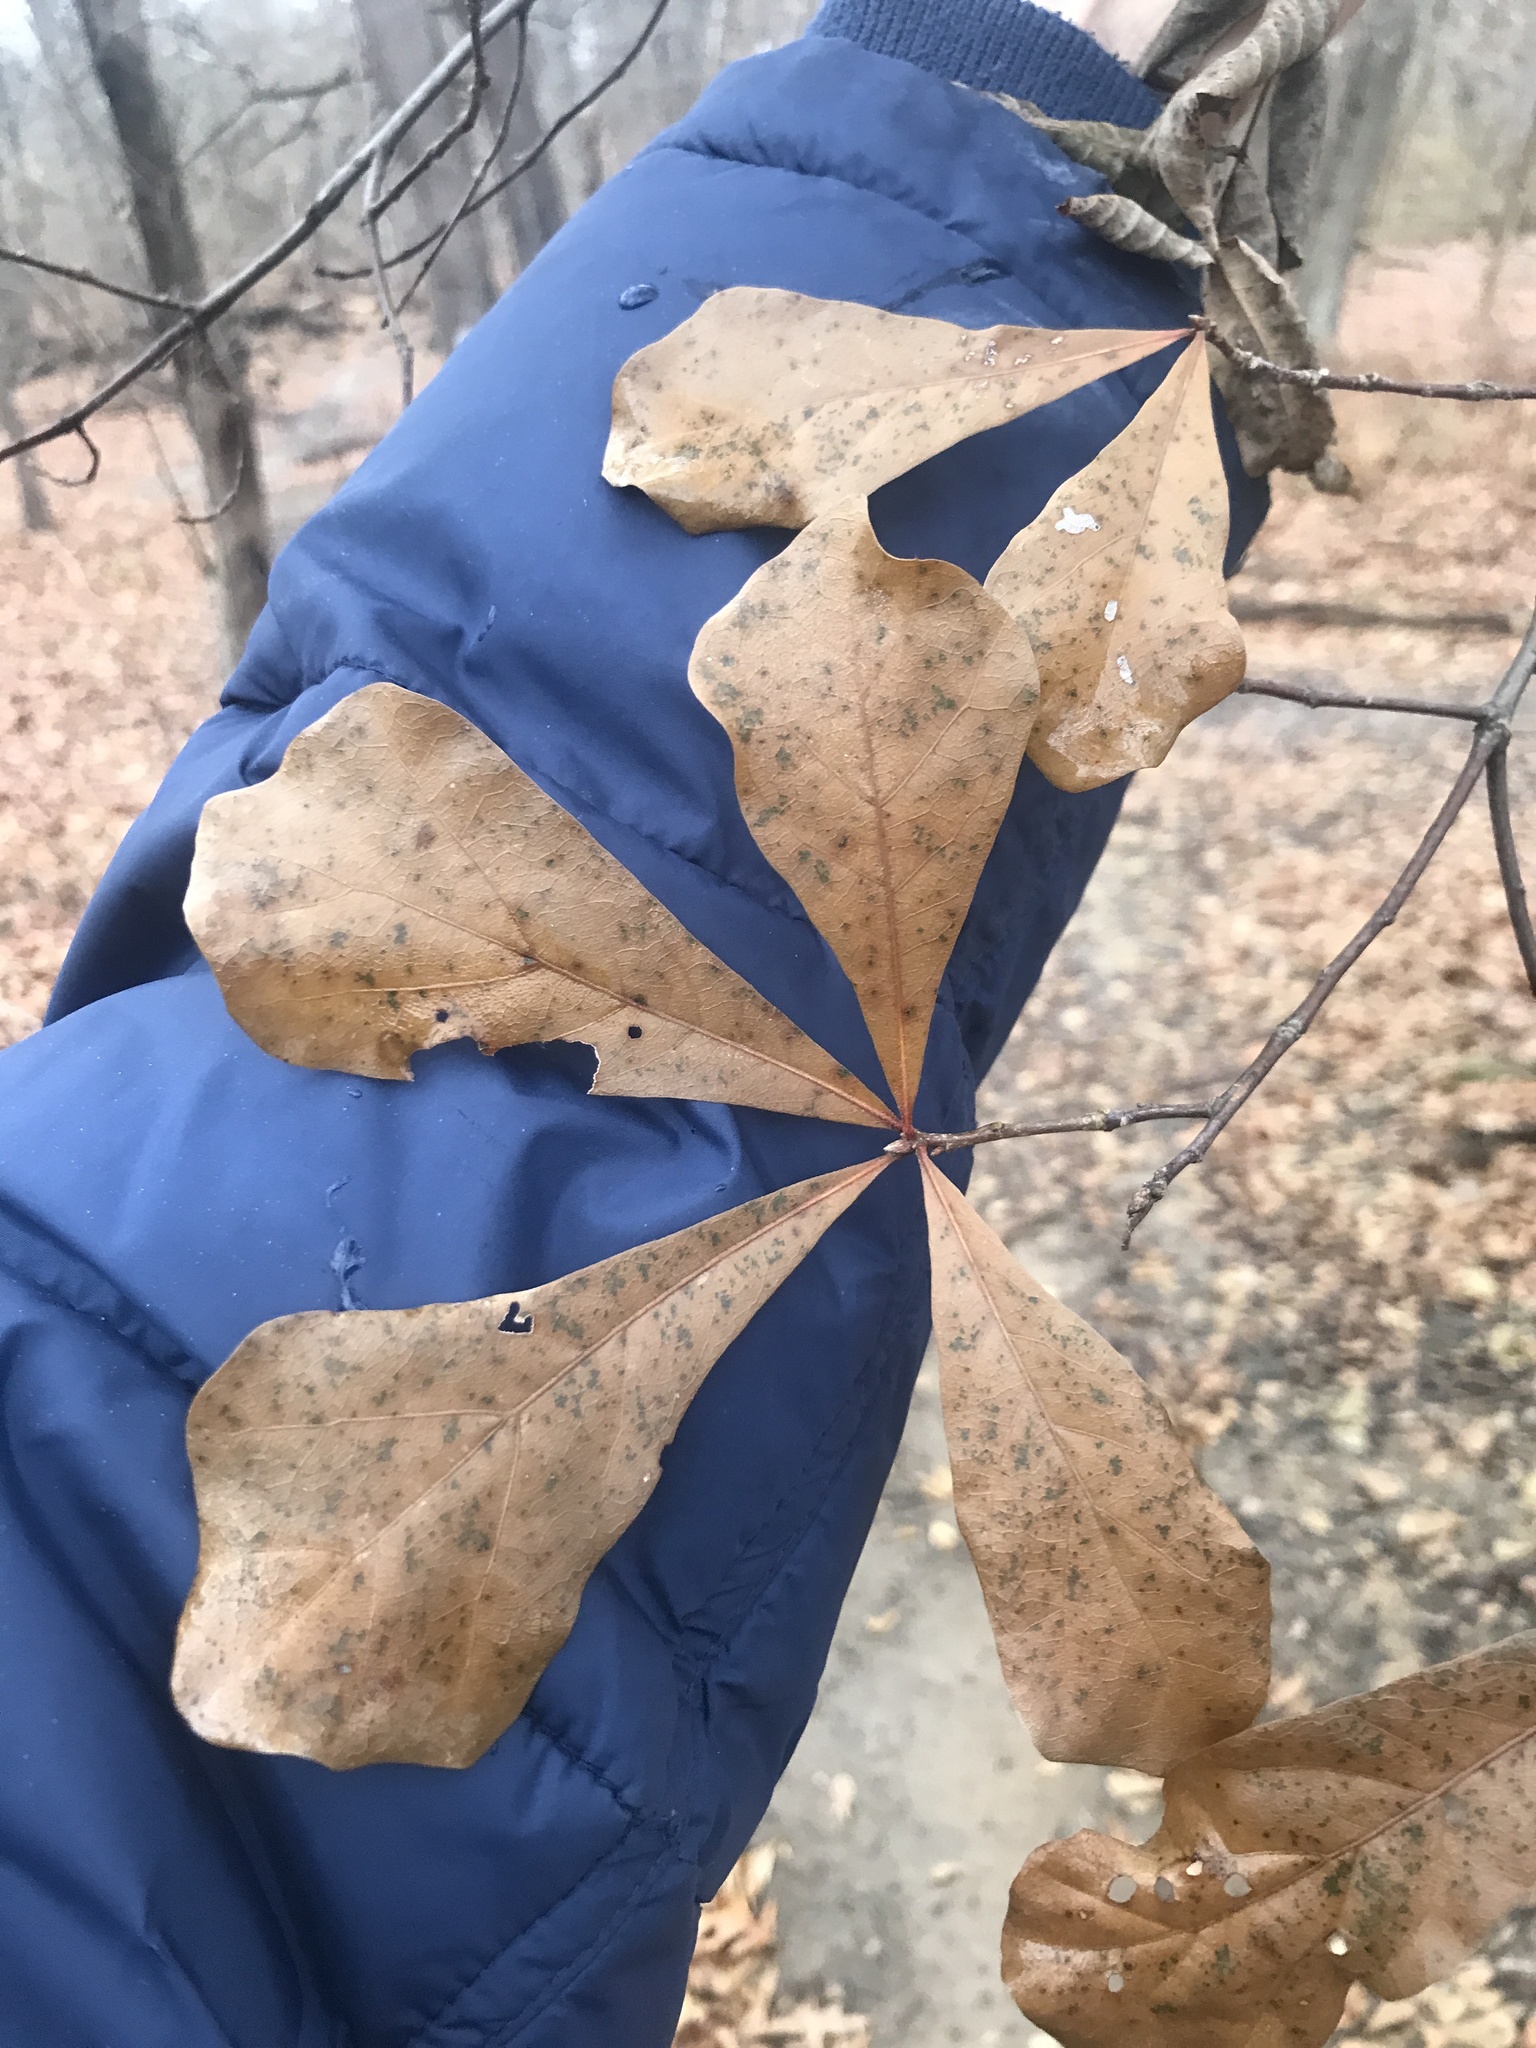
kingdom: Plantae
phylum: Tracheophyta
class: Magnoliopsida
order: Fagales
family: Fagaceae
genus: Quercus
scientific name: Quercus nigra
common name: Water oak
